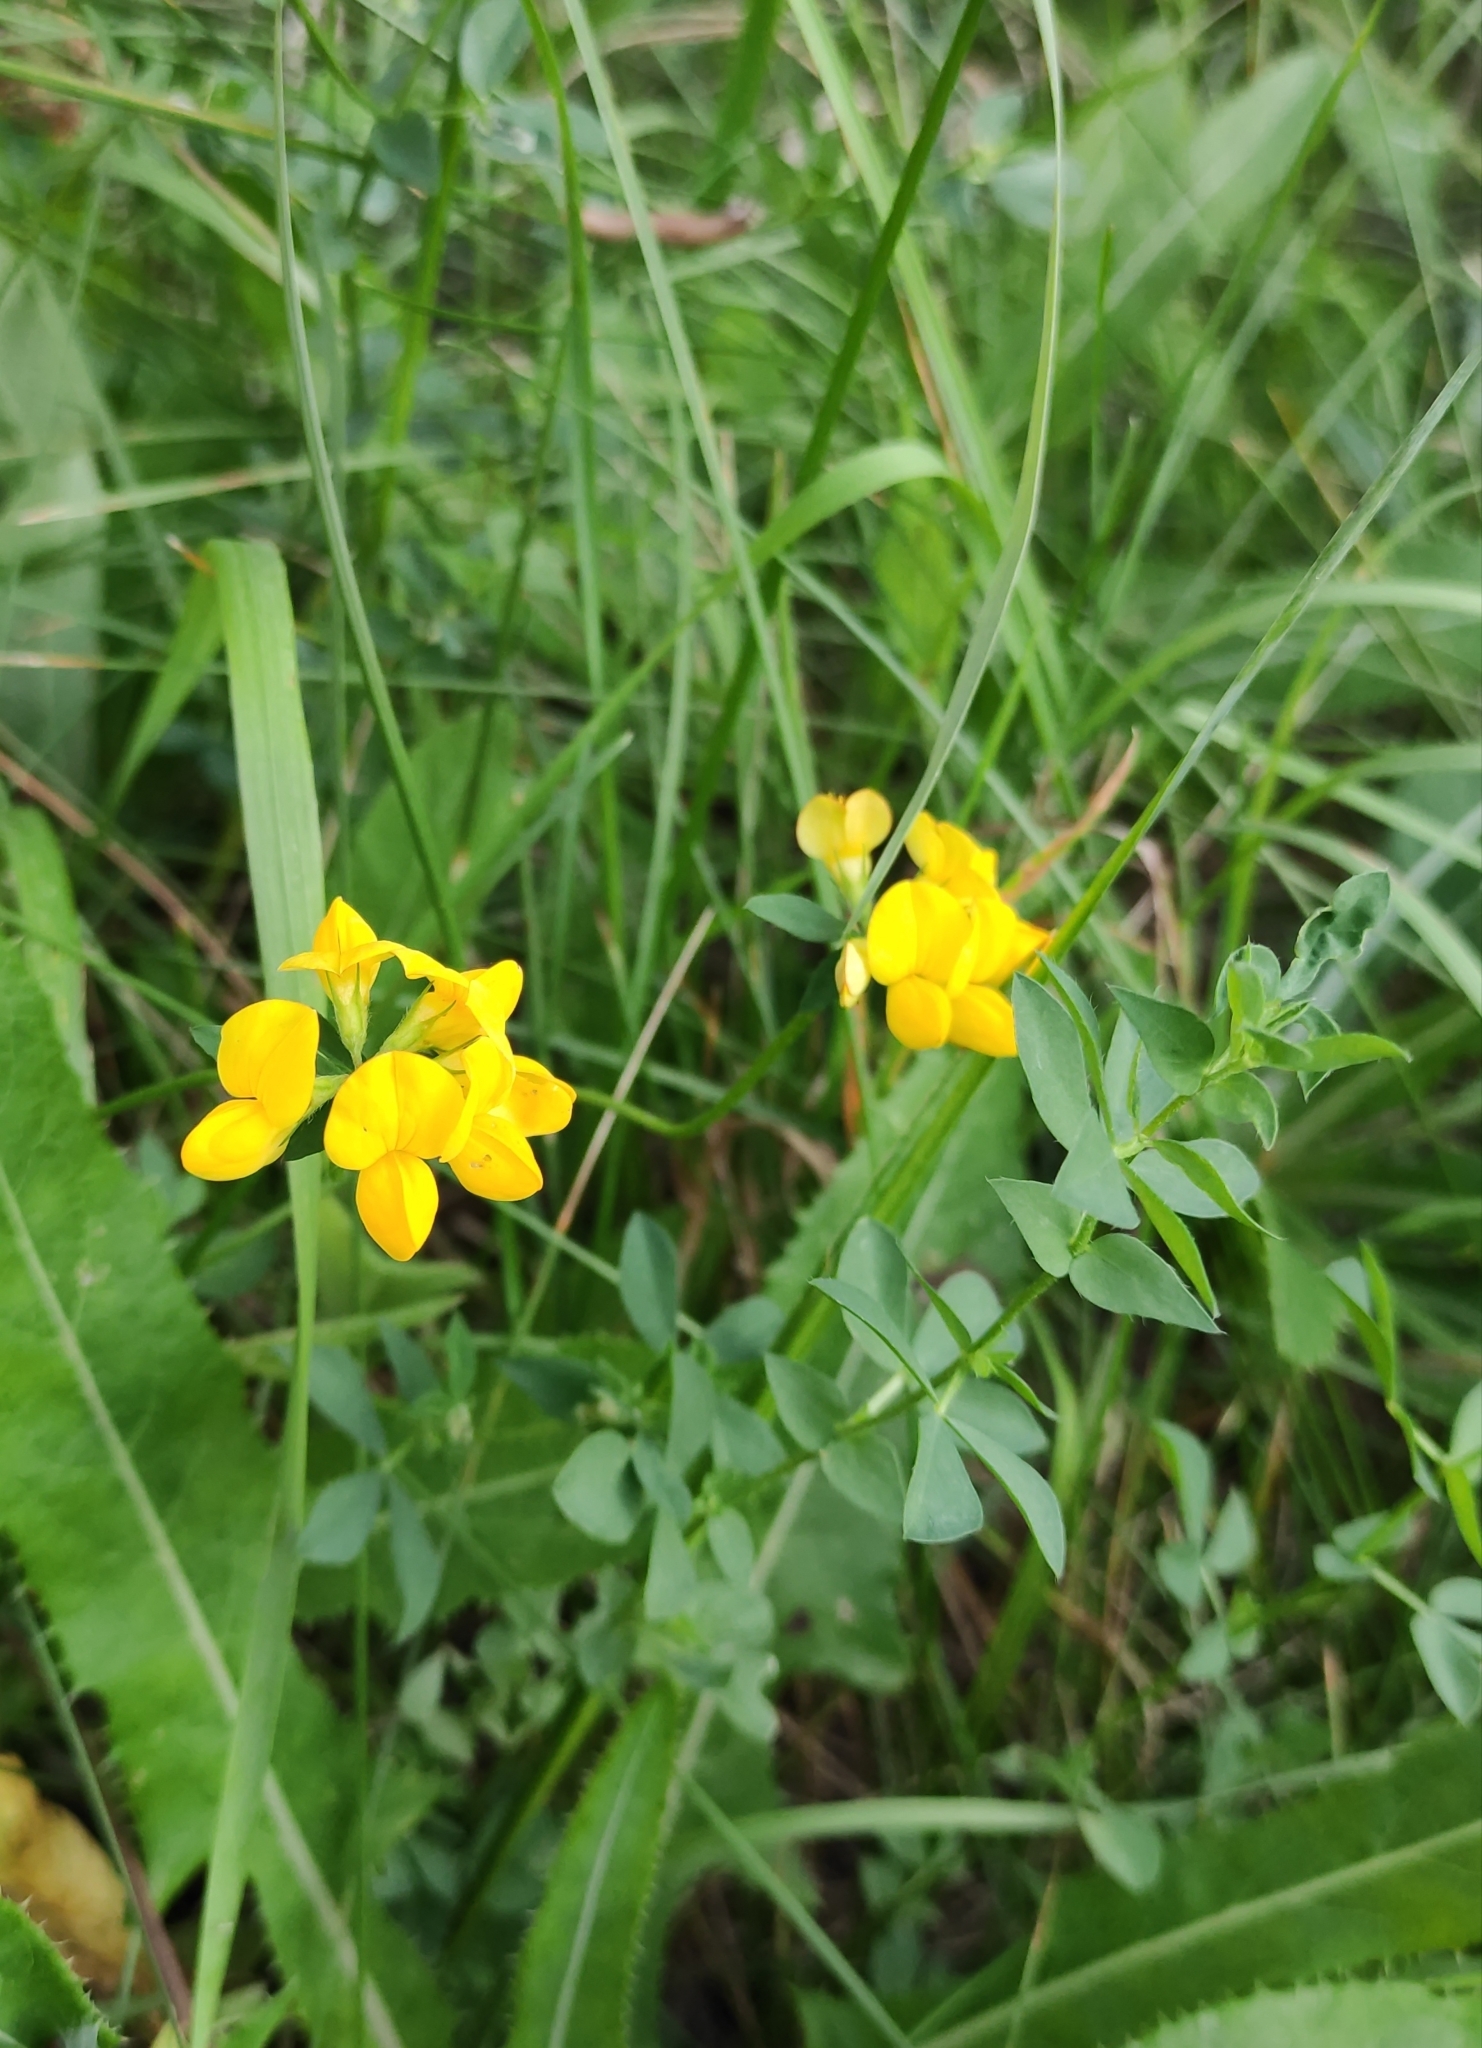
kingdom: Plantae
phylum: Tracheophyta
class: Magnoliopsida
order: Fabales
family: Fabaceae
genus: Lotus
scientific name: Lotus corniculatus
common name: Common bird's-foot-trefoil
